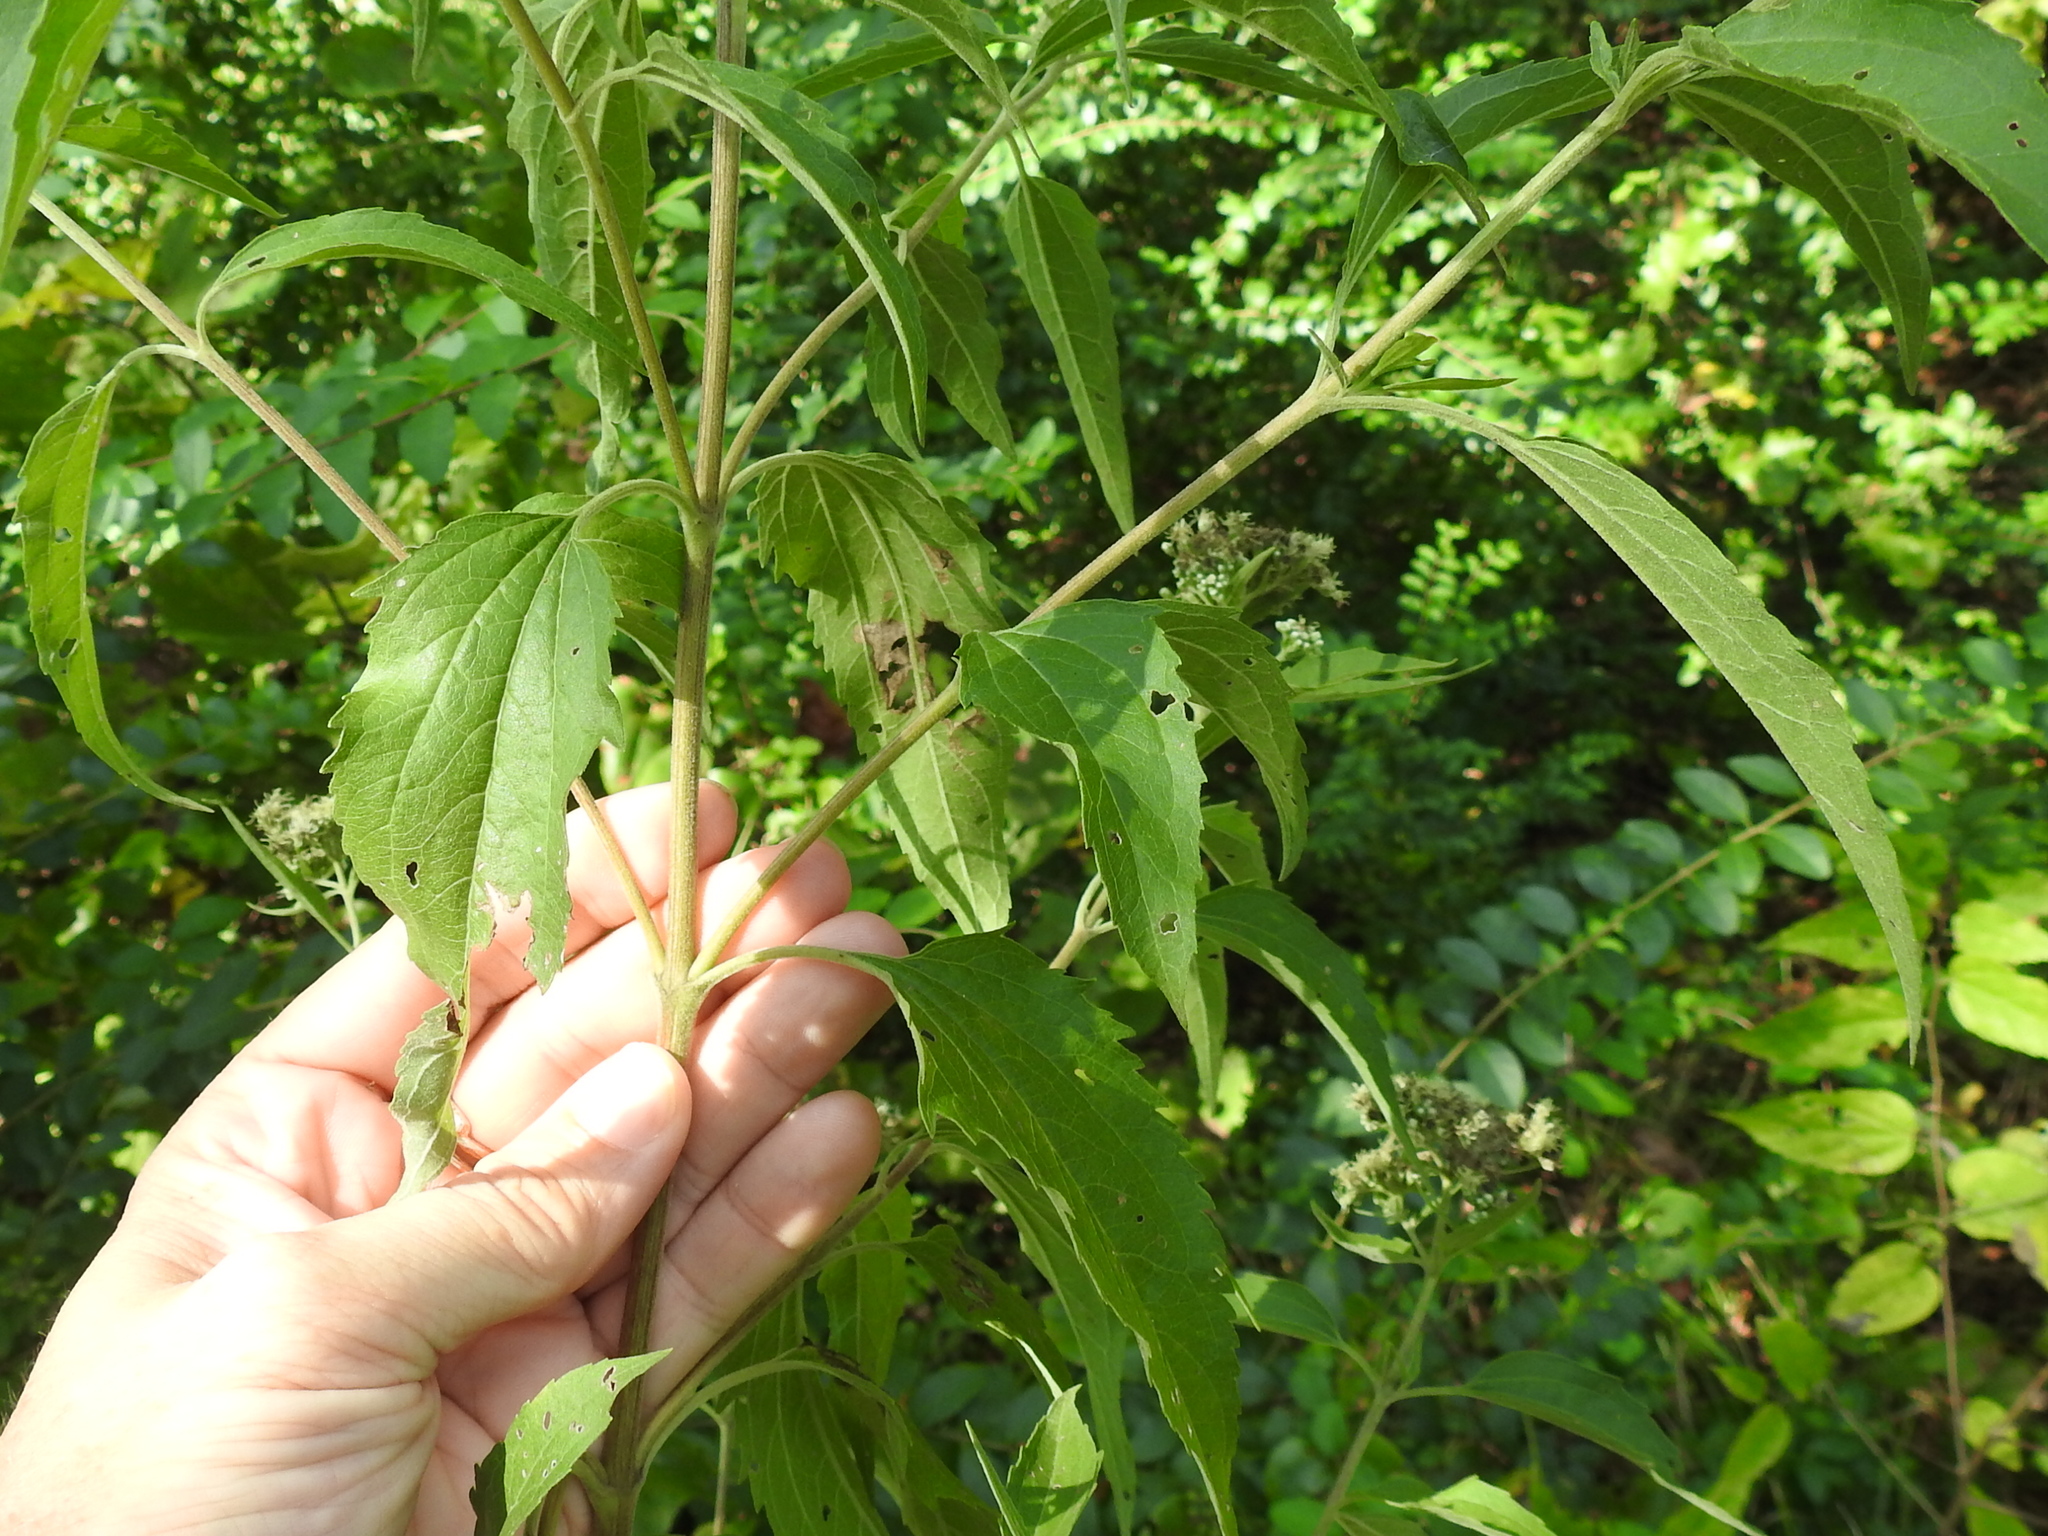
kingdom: Plantae
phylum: Tracheophyta
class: Magnoliopsida
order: Asterales
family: Asteraceae
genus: Eupatorium
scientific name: Eupatorium serotinum
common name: Late boneset
